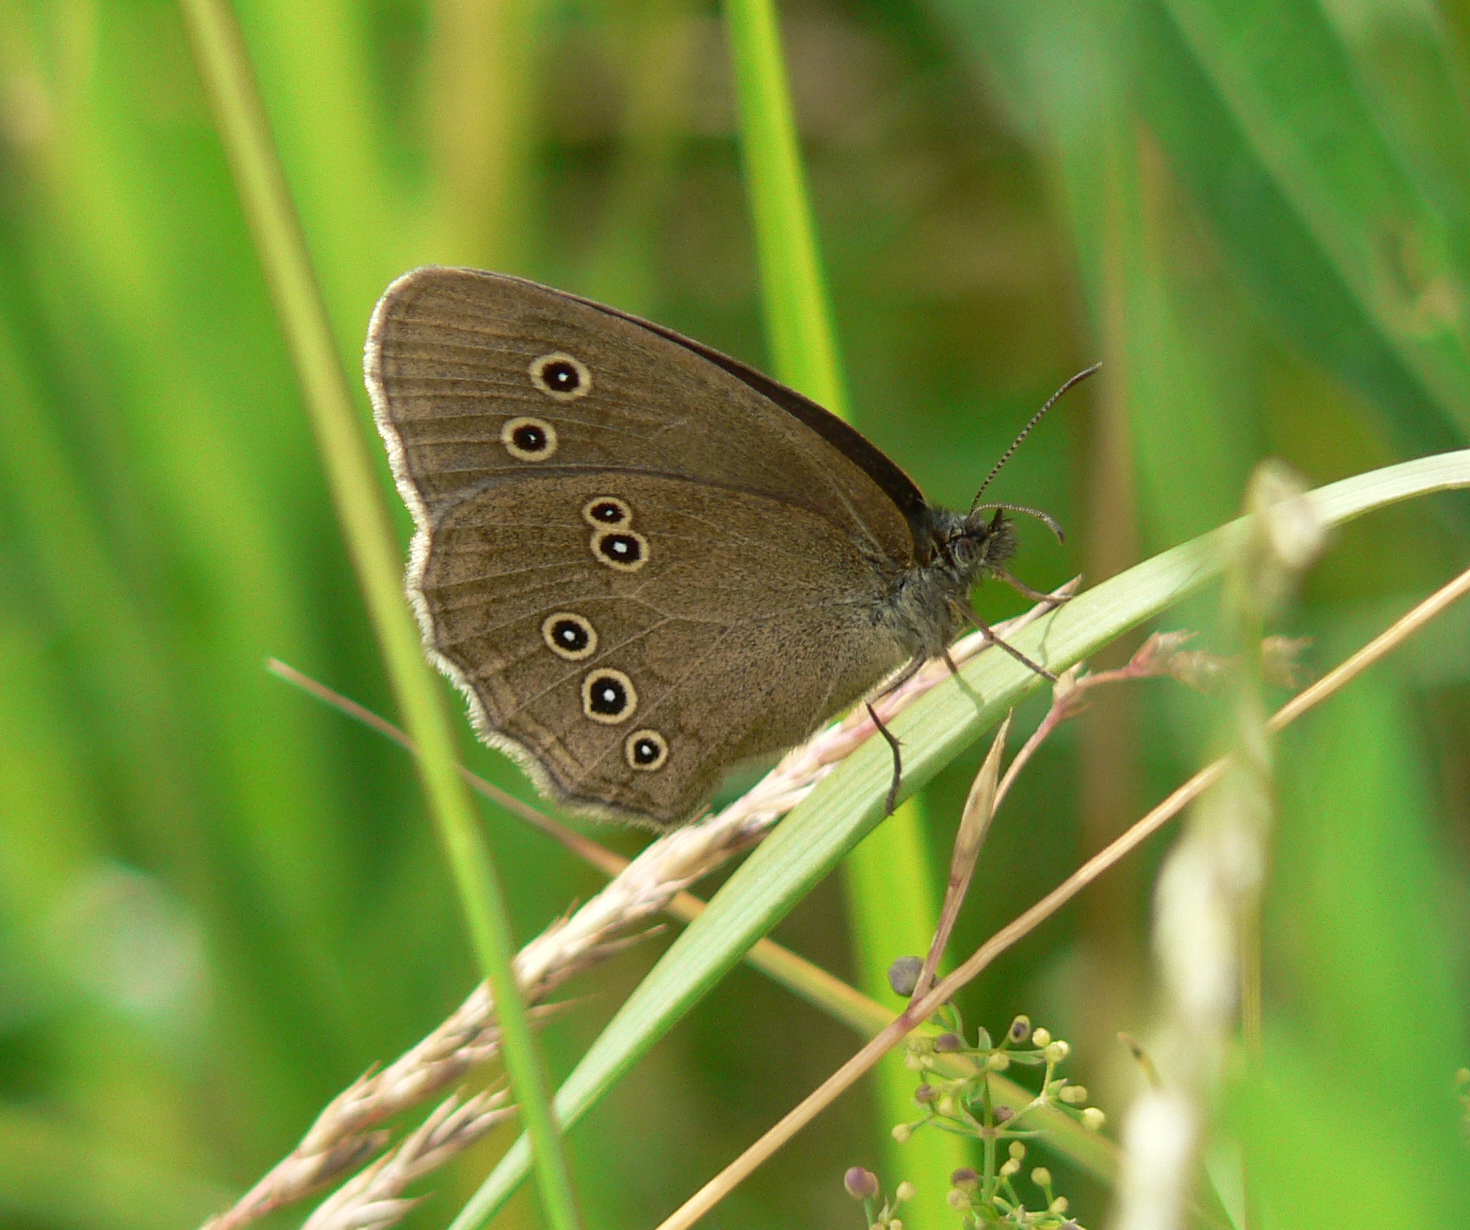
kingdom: Animalia
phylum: Arthropoda
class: Insecta
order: Lepidoptera
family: Nymphalidae
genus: Aphantopus
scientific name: Aphantopus hyperantus
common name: Ringlet
